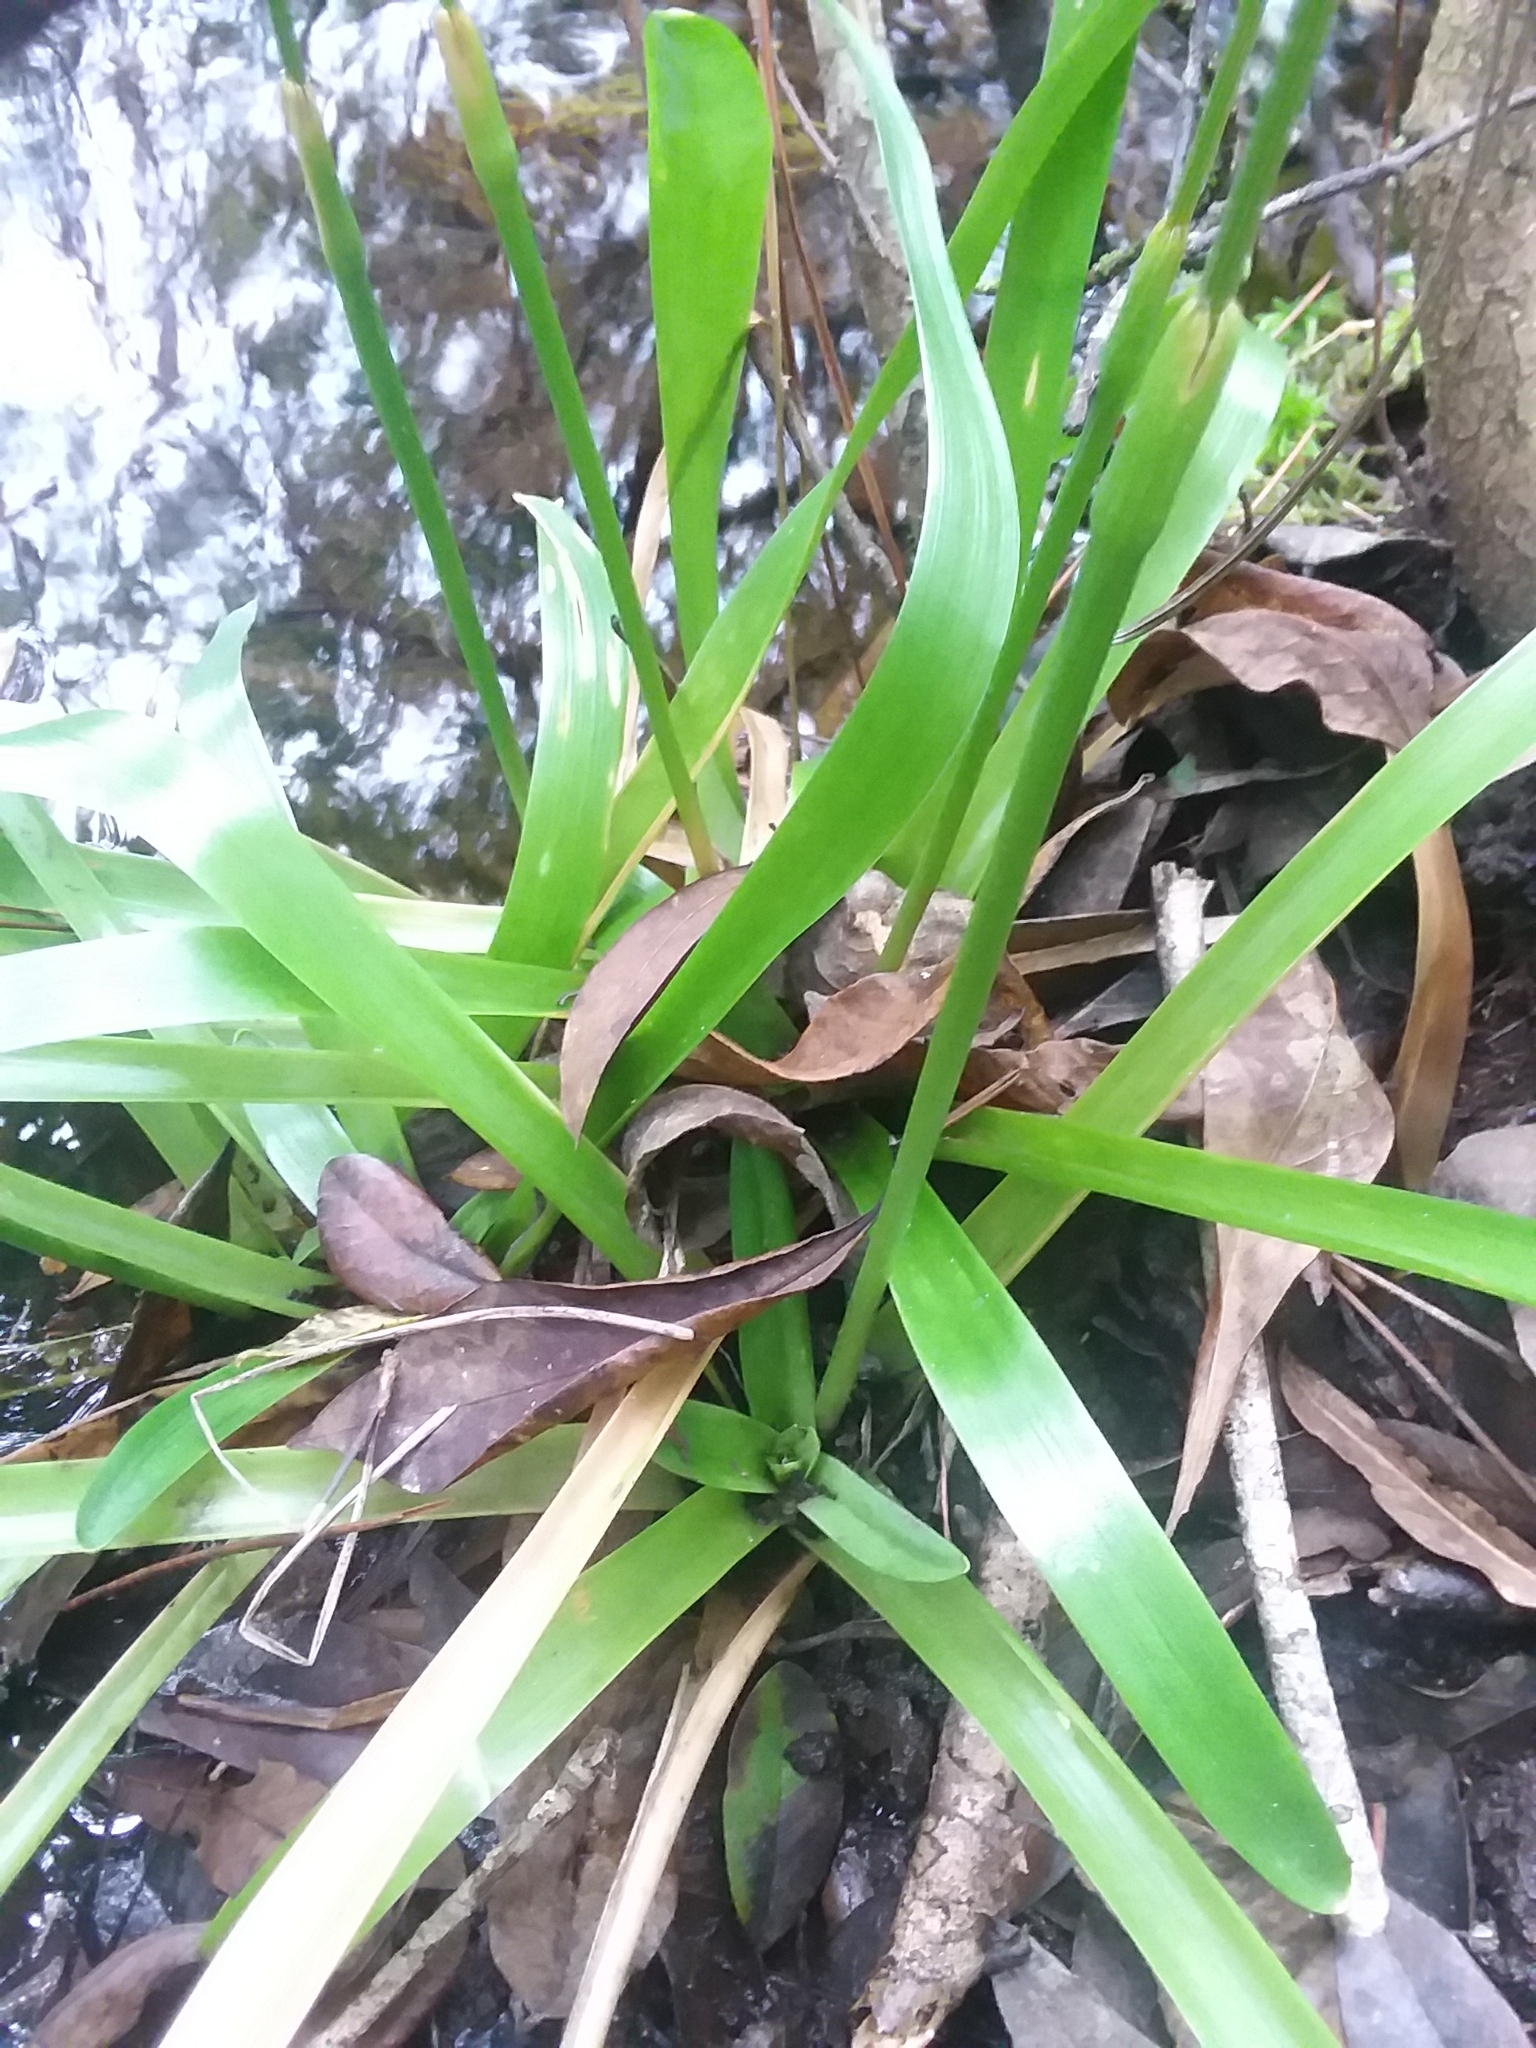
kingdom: Plantae
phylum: Tracheophyta
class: Liliopsida
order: Poales
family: Eriocaulaceae
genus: Eriocaulon
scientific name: Eriocaulon decangulare
